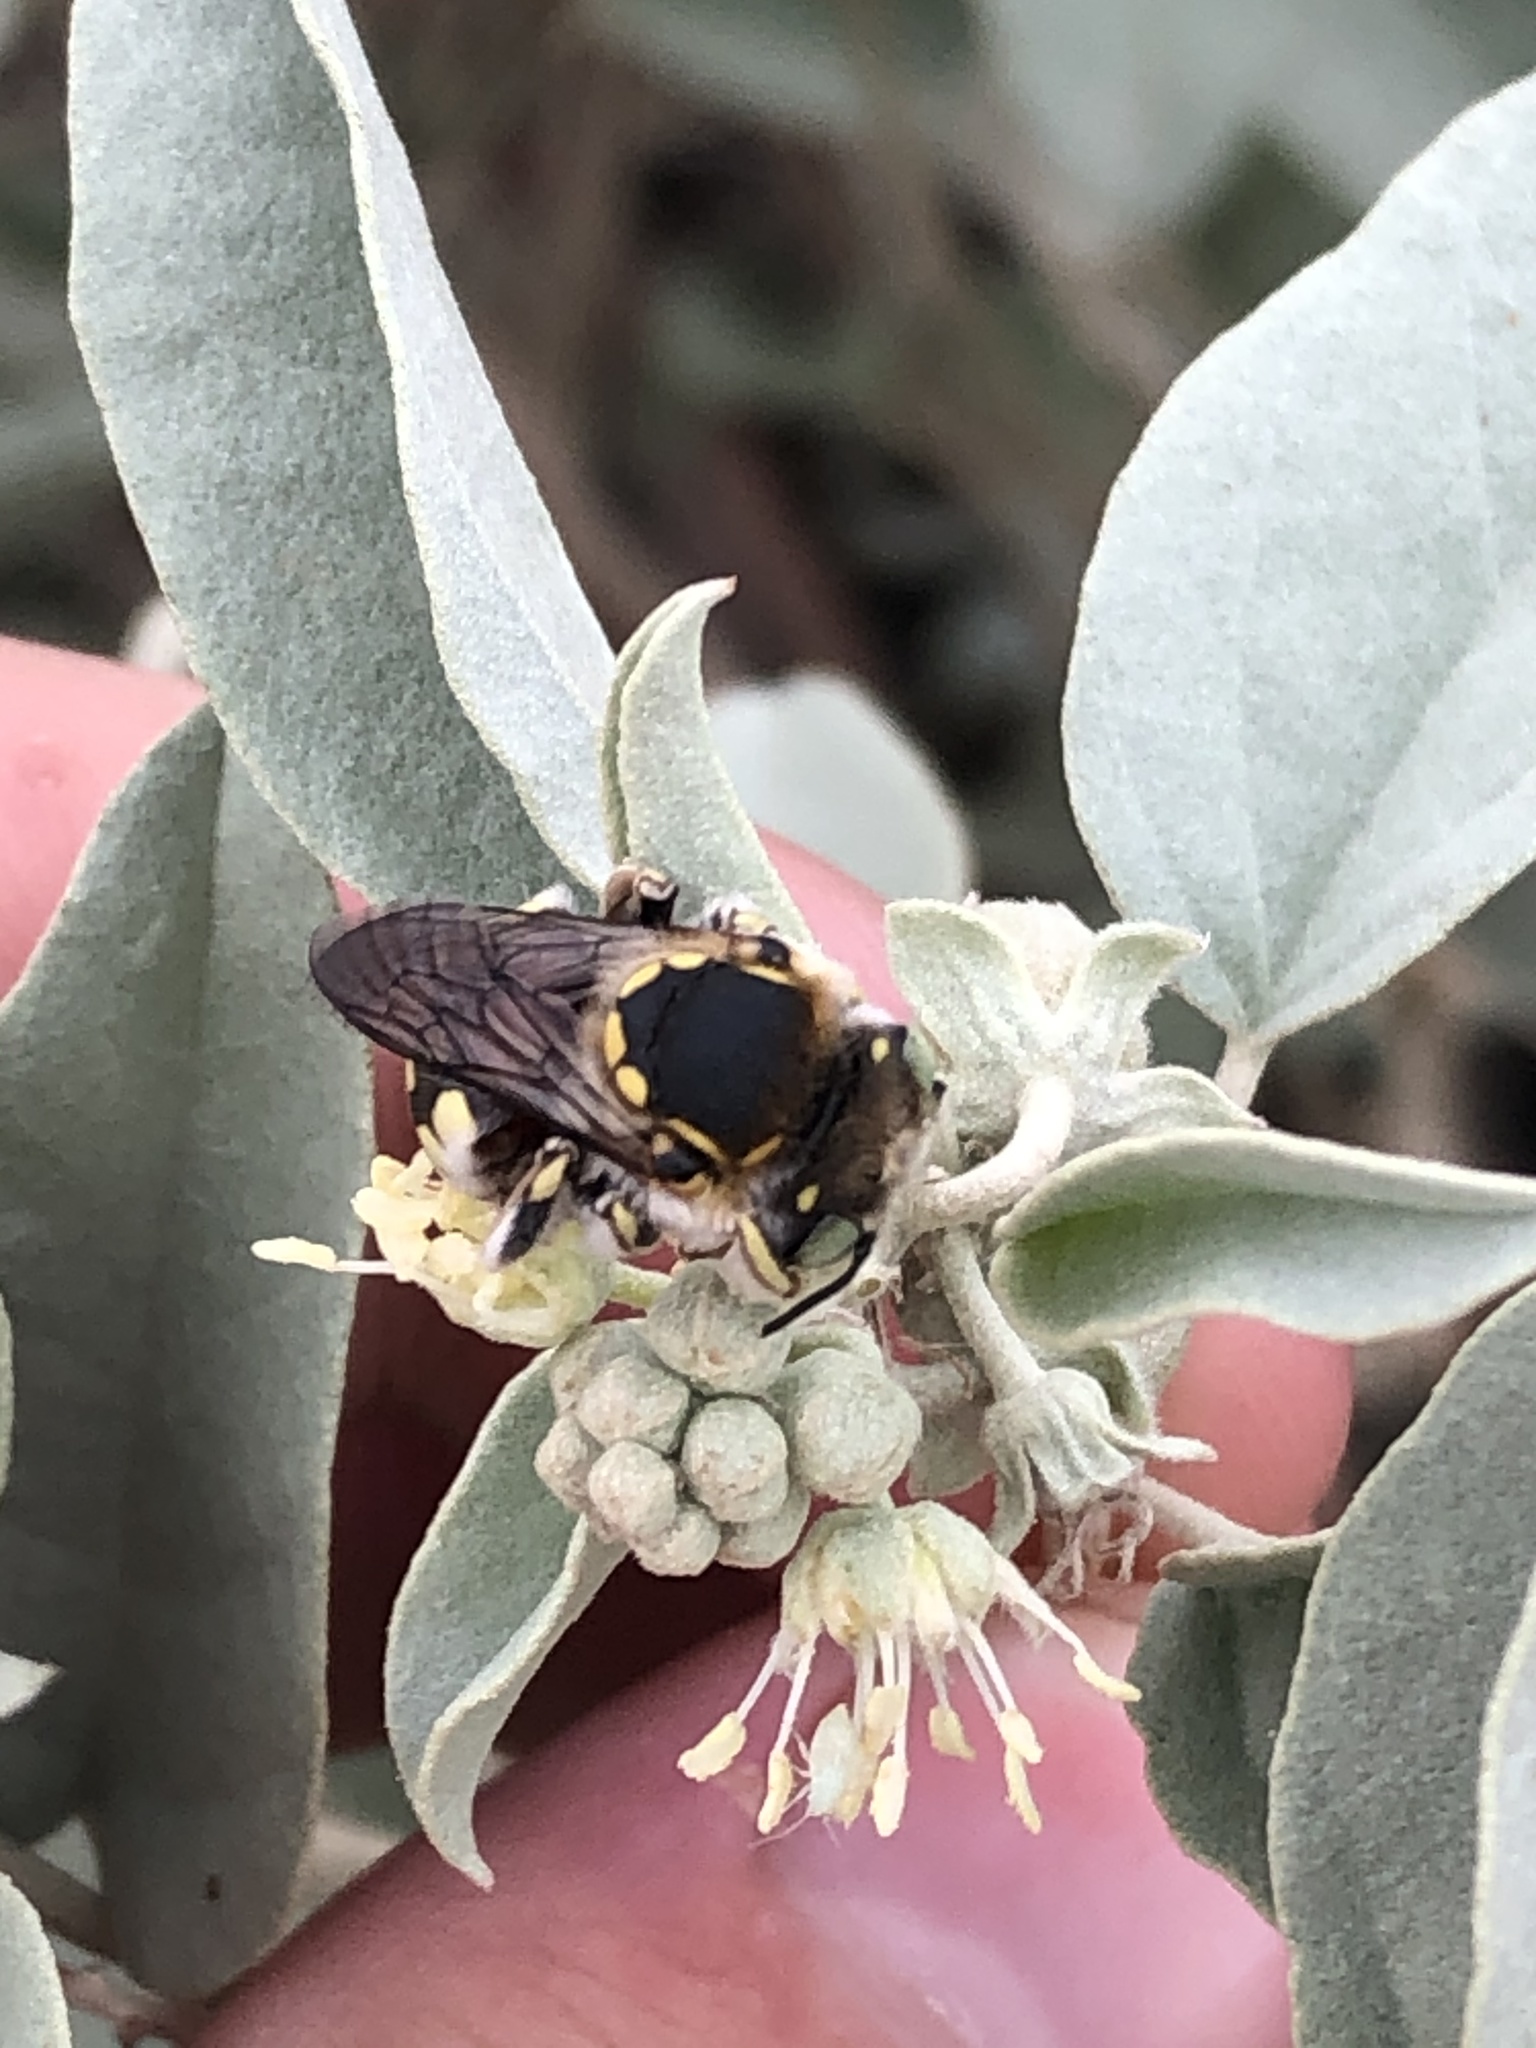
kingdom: Animalia
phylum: Arthropoda
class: Insecta
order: Hymenoptera
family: Megachilidae
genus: Anthidium
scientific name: Anthidium
